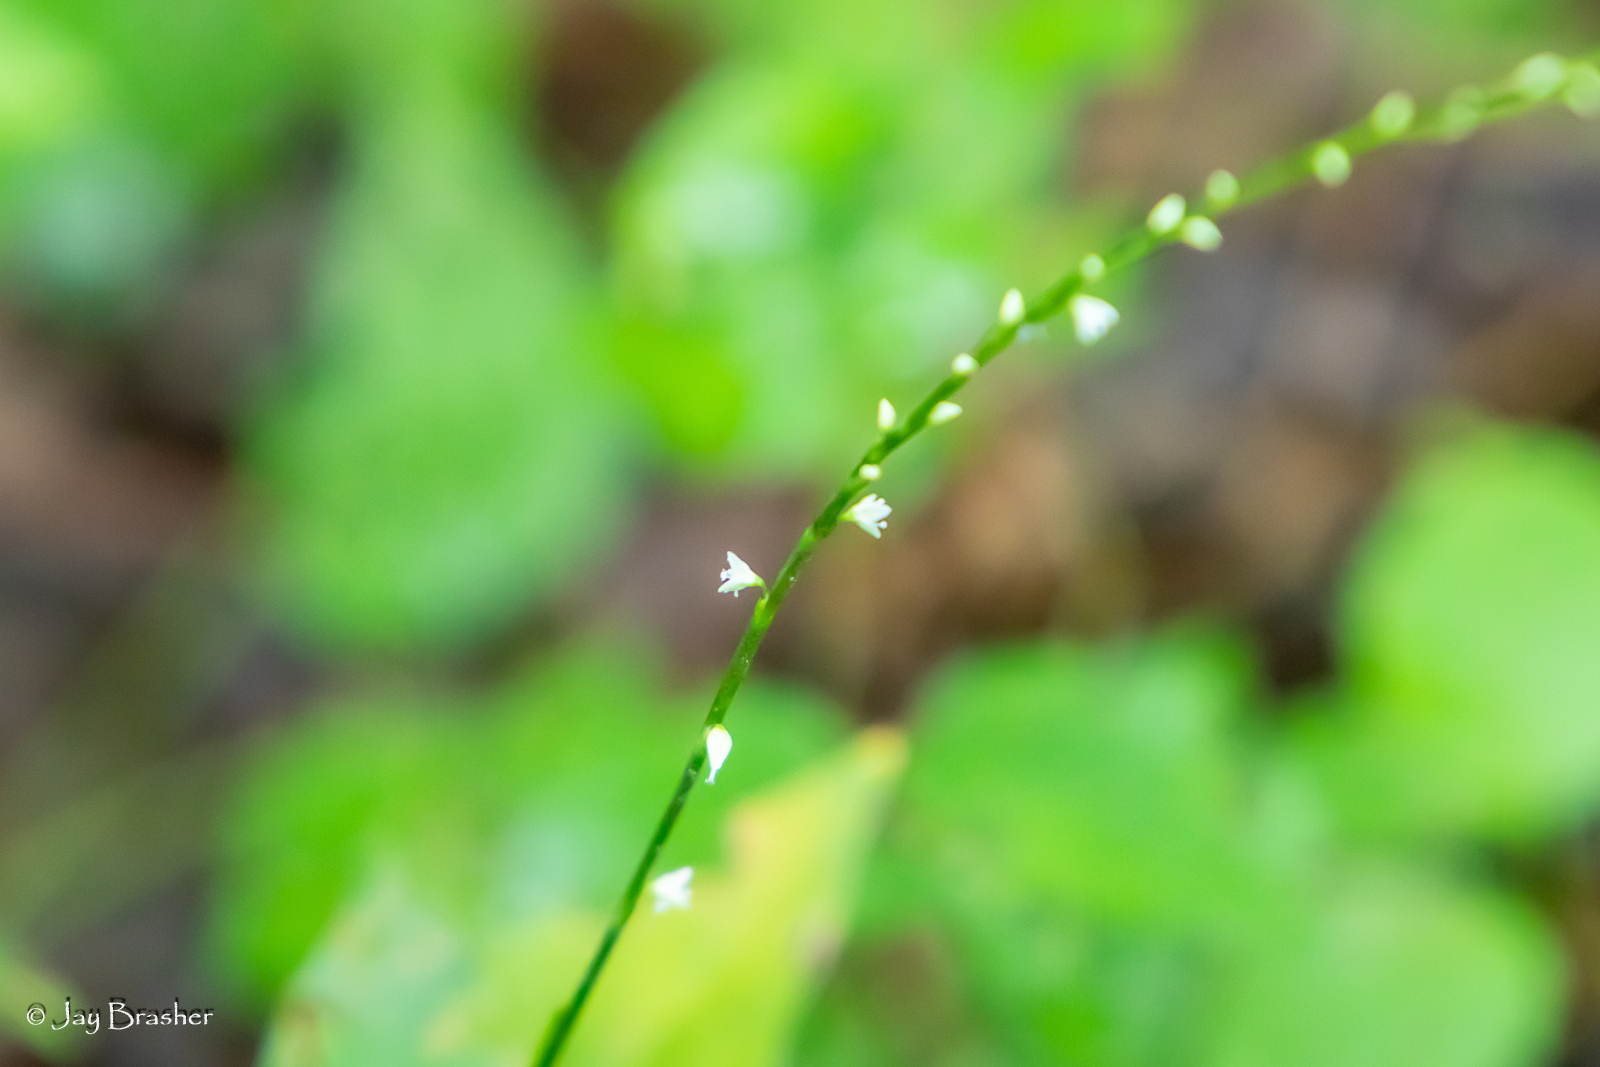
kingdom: Plantae
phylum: Tracheophyta
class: Magnoliopsida
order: Caryophyllales
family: Polygonaceae
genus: Persicaria
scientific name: Persicaria virginiana
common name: Jumpseed
